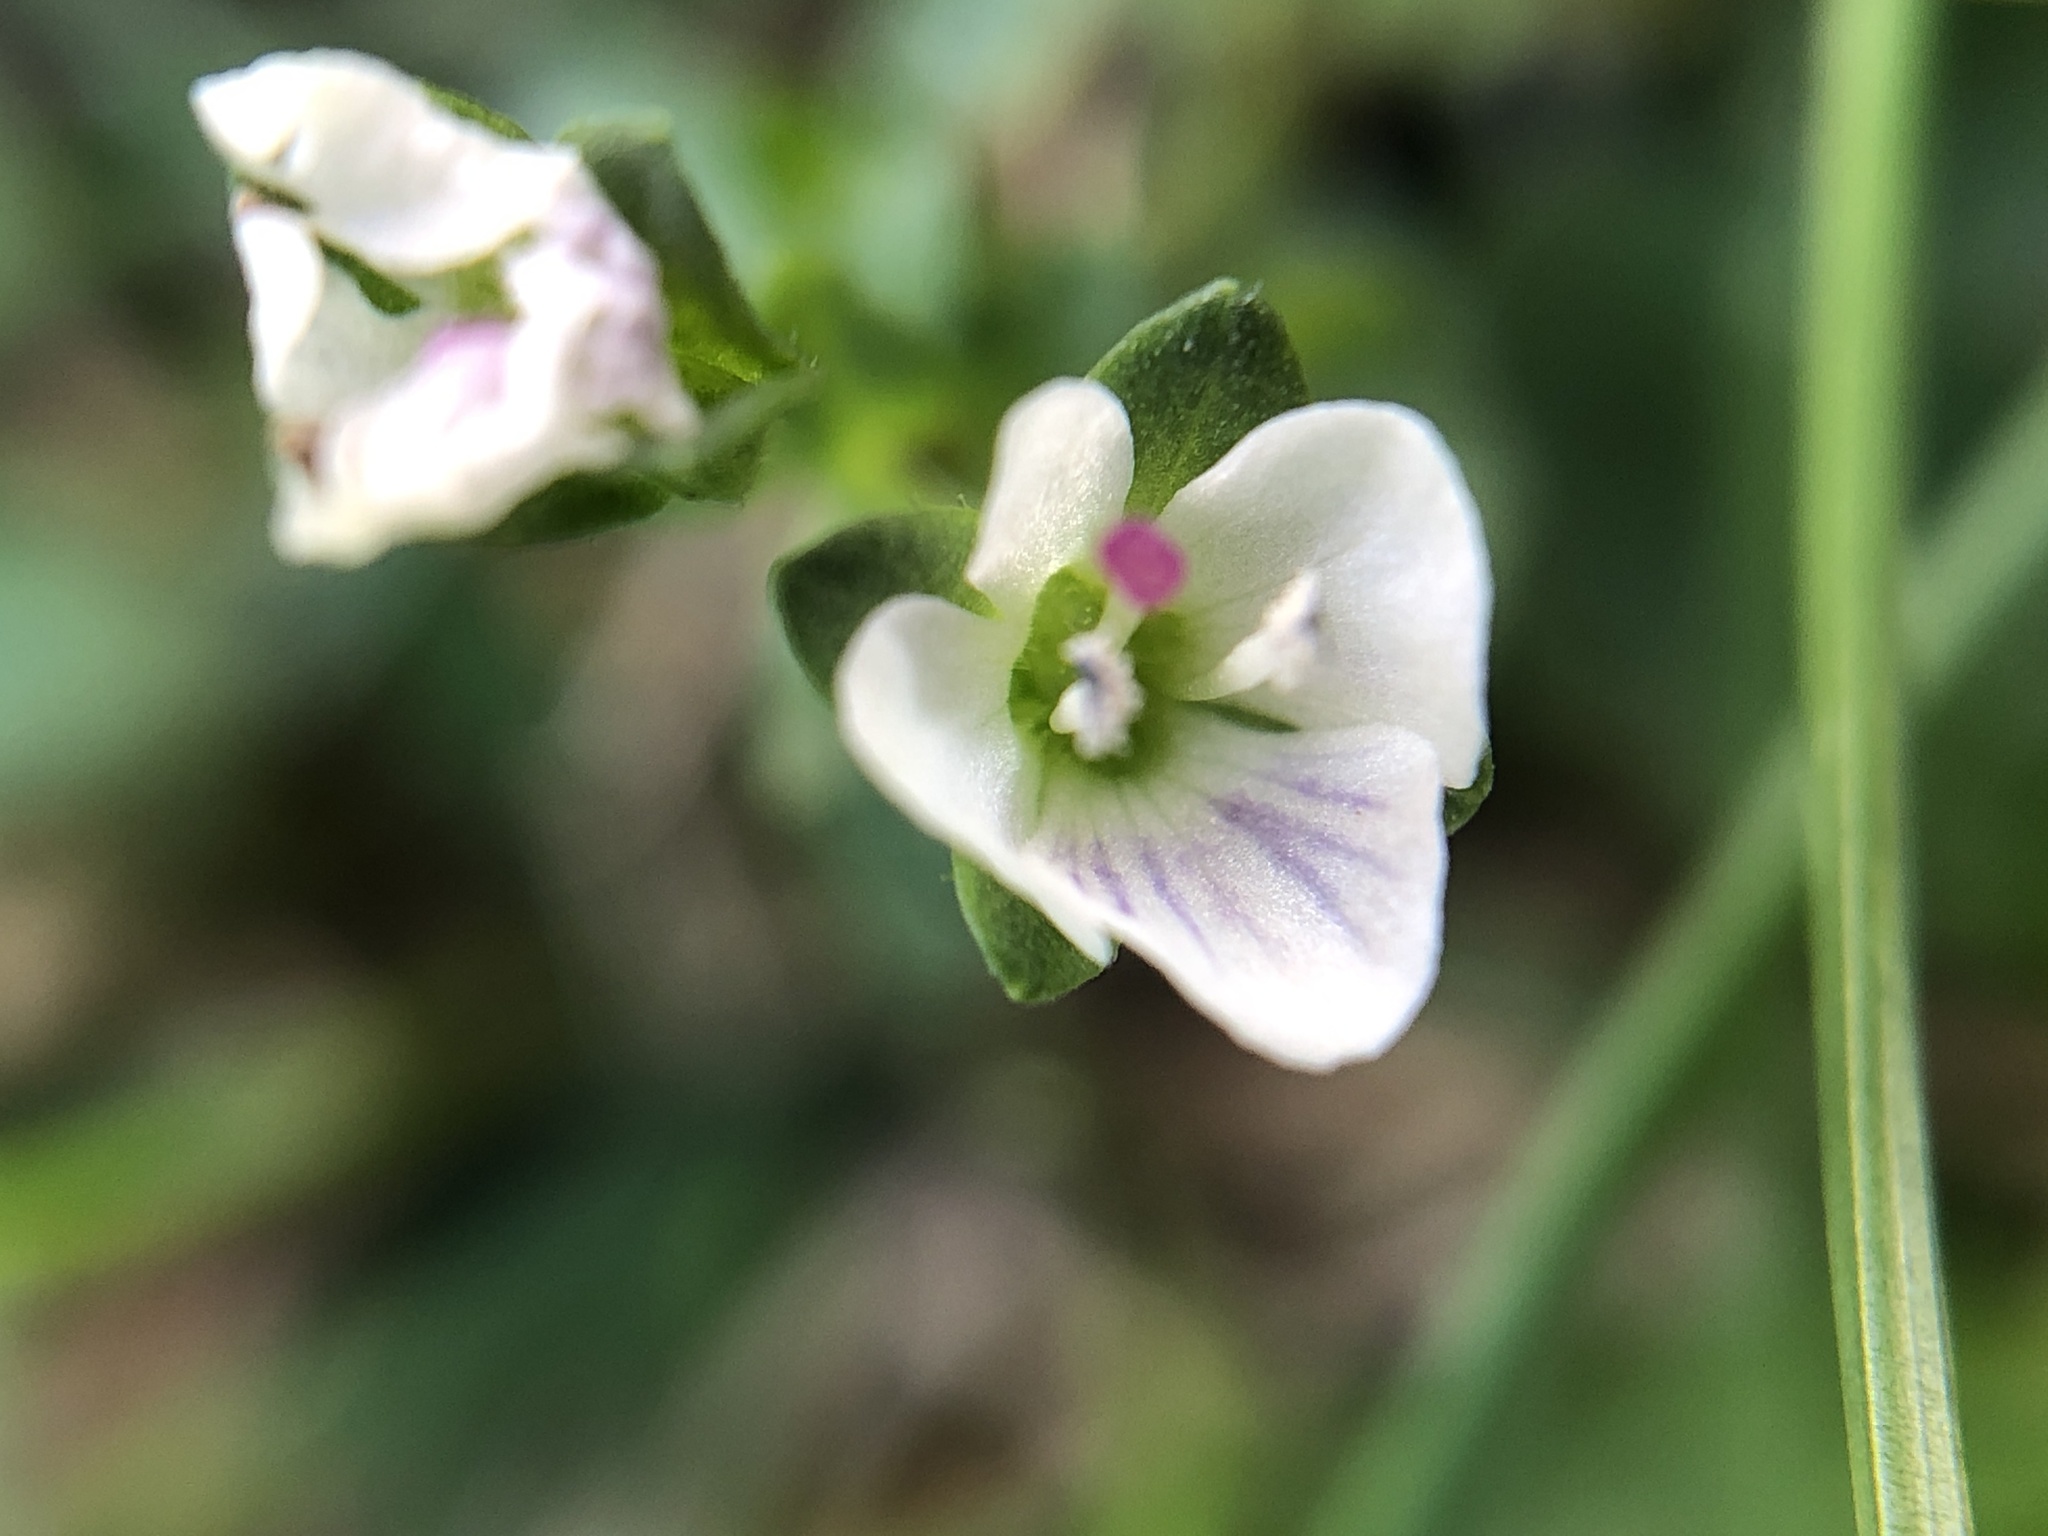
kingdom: Plantae
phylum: Tracheophyta
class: Magnoliopsida
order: Lamiales
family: Plantaginaceae
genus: Veronica
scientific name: Veronica serpyllifolia
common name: Thyme-leaved speedwell
